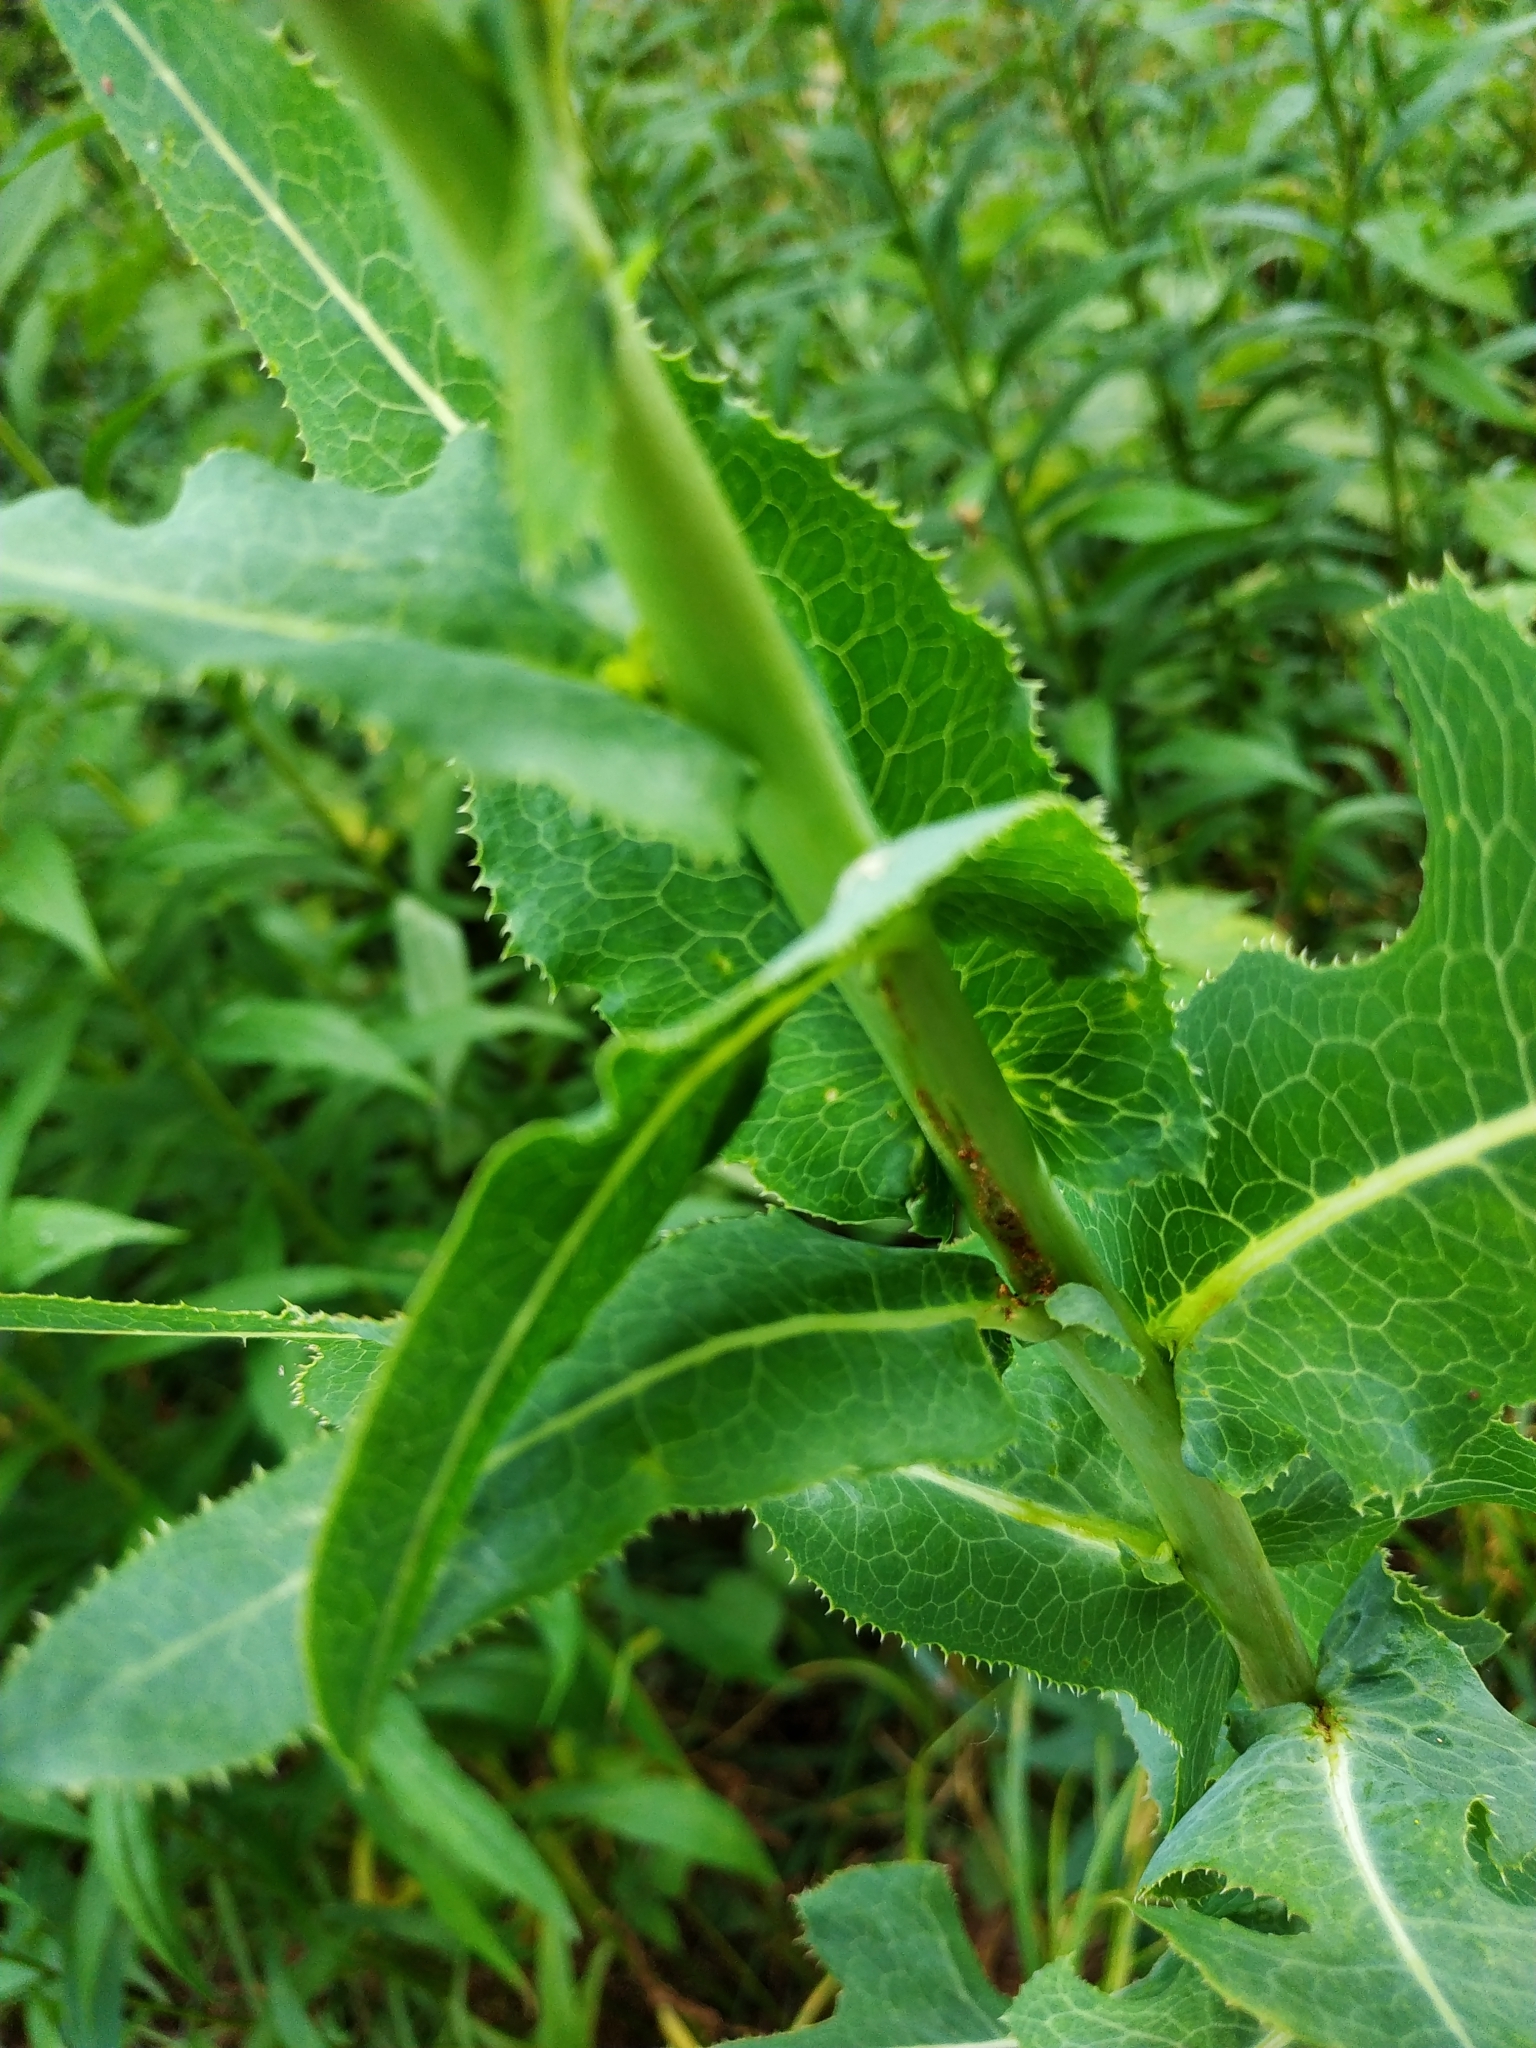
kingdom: Plantae
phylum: Tracheophyta
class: Magnoliopsida
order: Asterales
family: Asteraceae
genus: Lactuca
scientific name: Lactuca serriola
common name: Prickly lettuce
